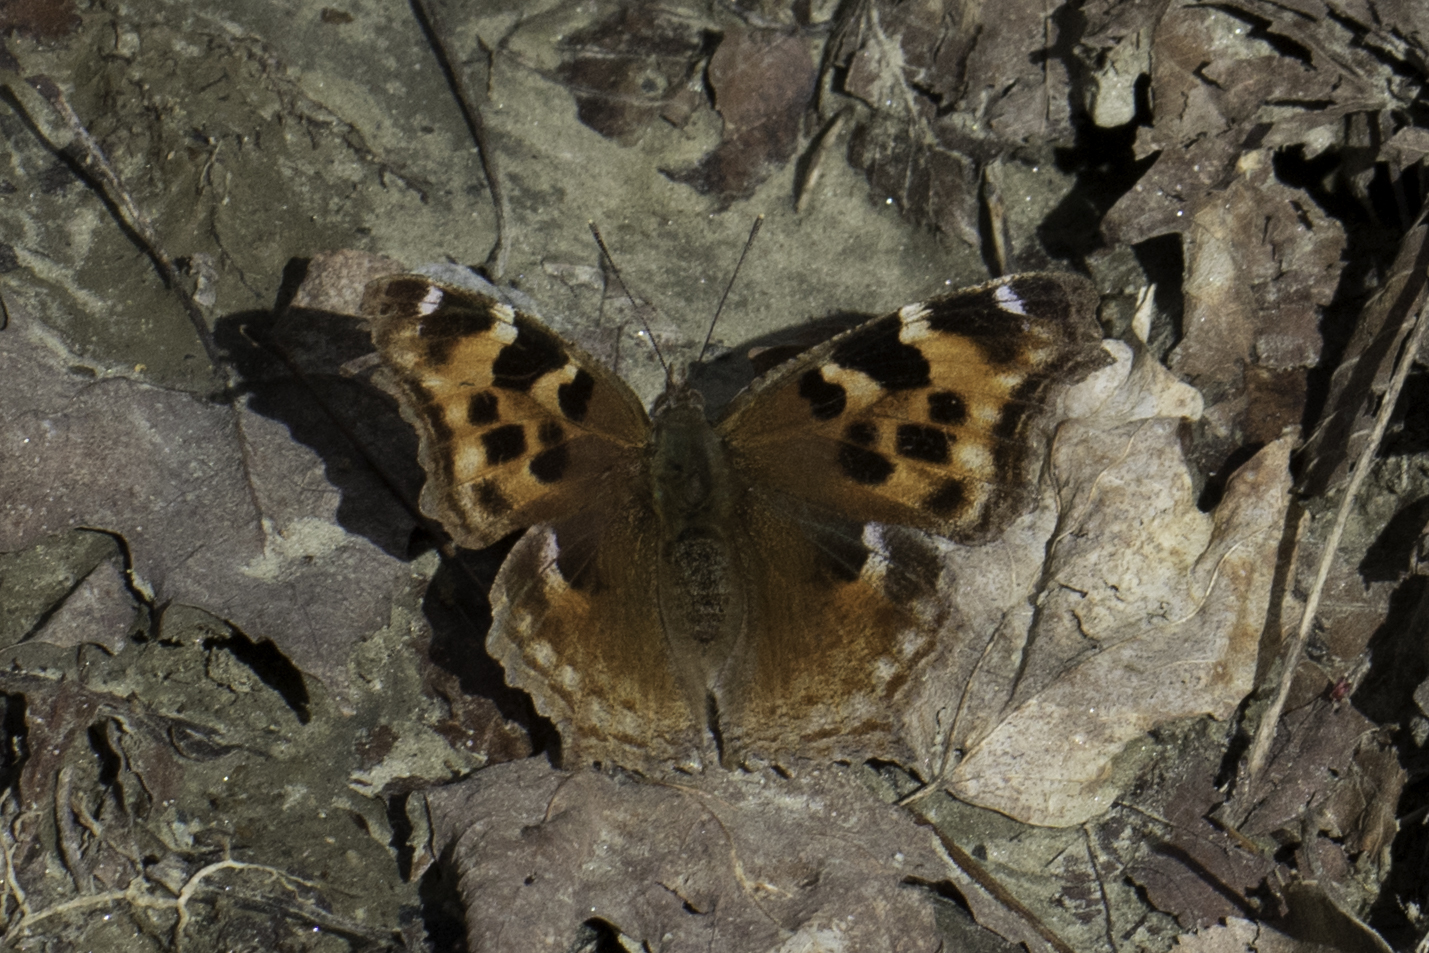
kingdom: Animalia
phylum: Arthropoda
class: Insecta
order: Lepidoptera
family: Nymphalidae
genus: Polygonia
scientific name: Polygonia vaualbum
